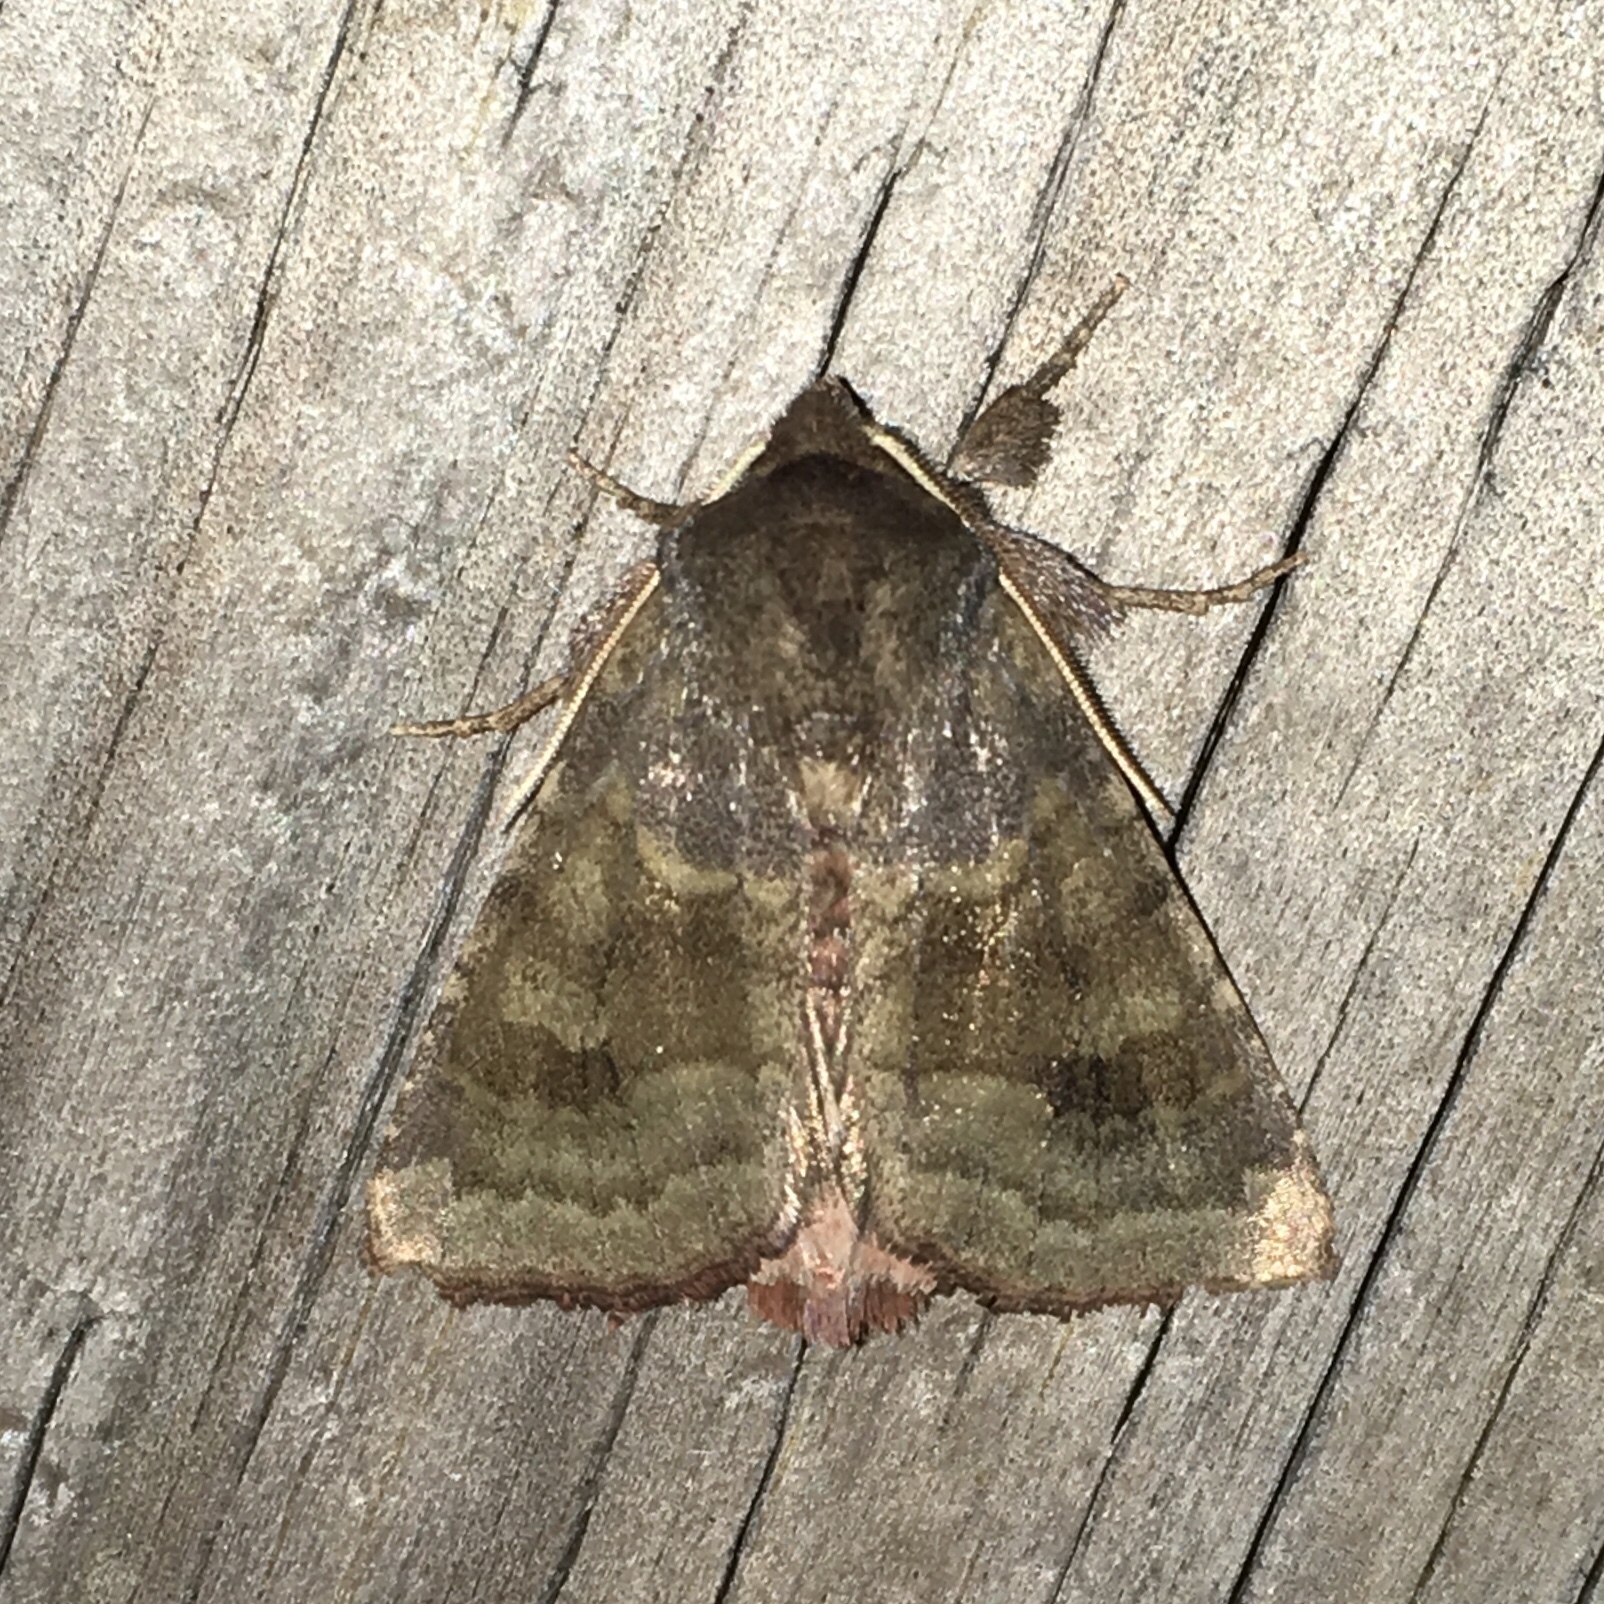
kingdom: Animalia
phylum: Arthropoda
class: Insecta
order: Lepidoptera
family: Noctuidae
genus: Nephelodes
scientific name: Nephelodes minians
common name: Bronzed cutworm
